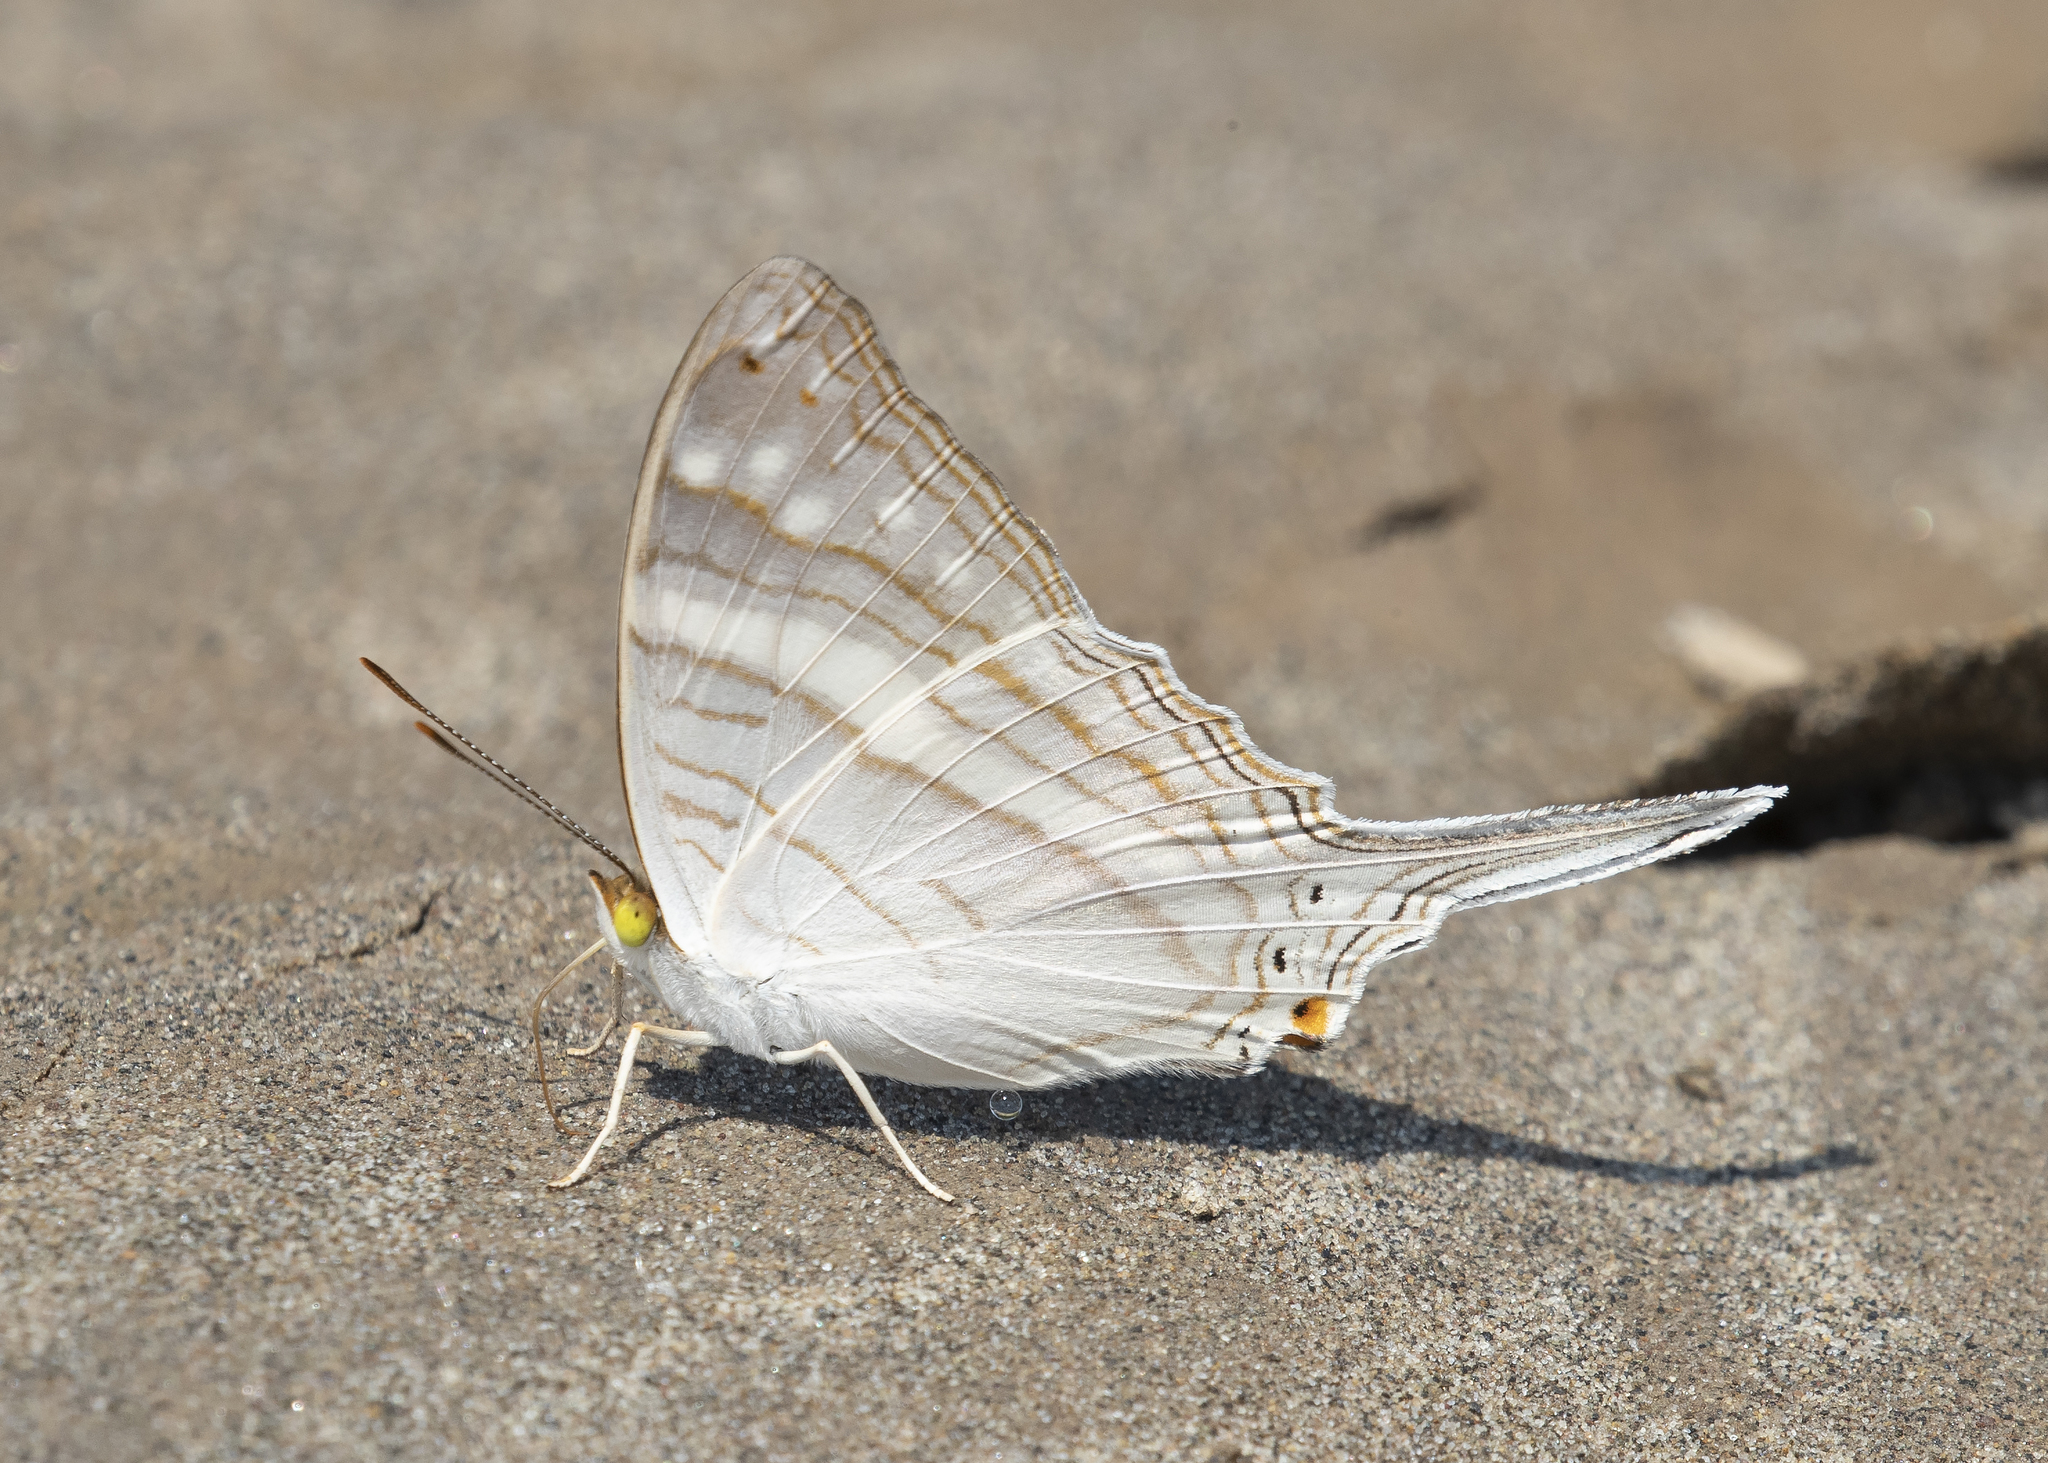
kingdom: Animalia
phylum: Arthropoda
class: Insecta
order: Lepidoptera
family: Nymphalidae
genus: Marpesia
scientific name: Marpesia crethon
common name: Crethon daggerwing
